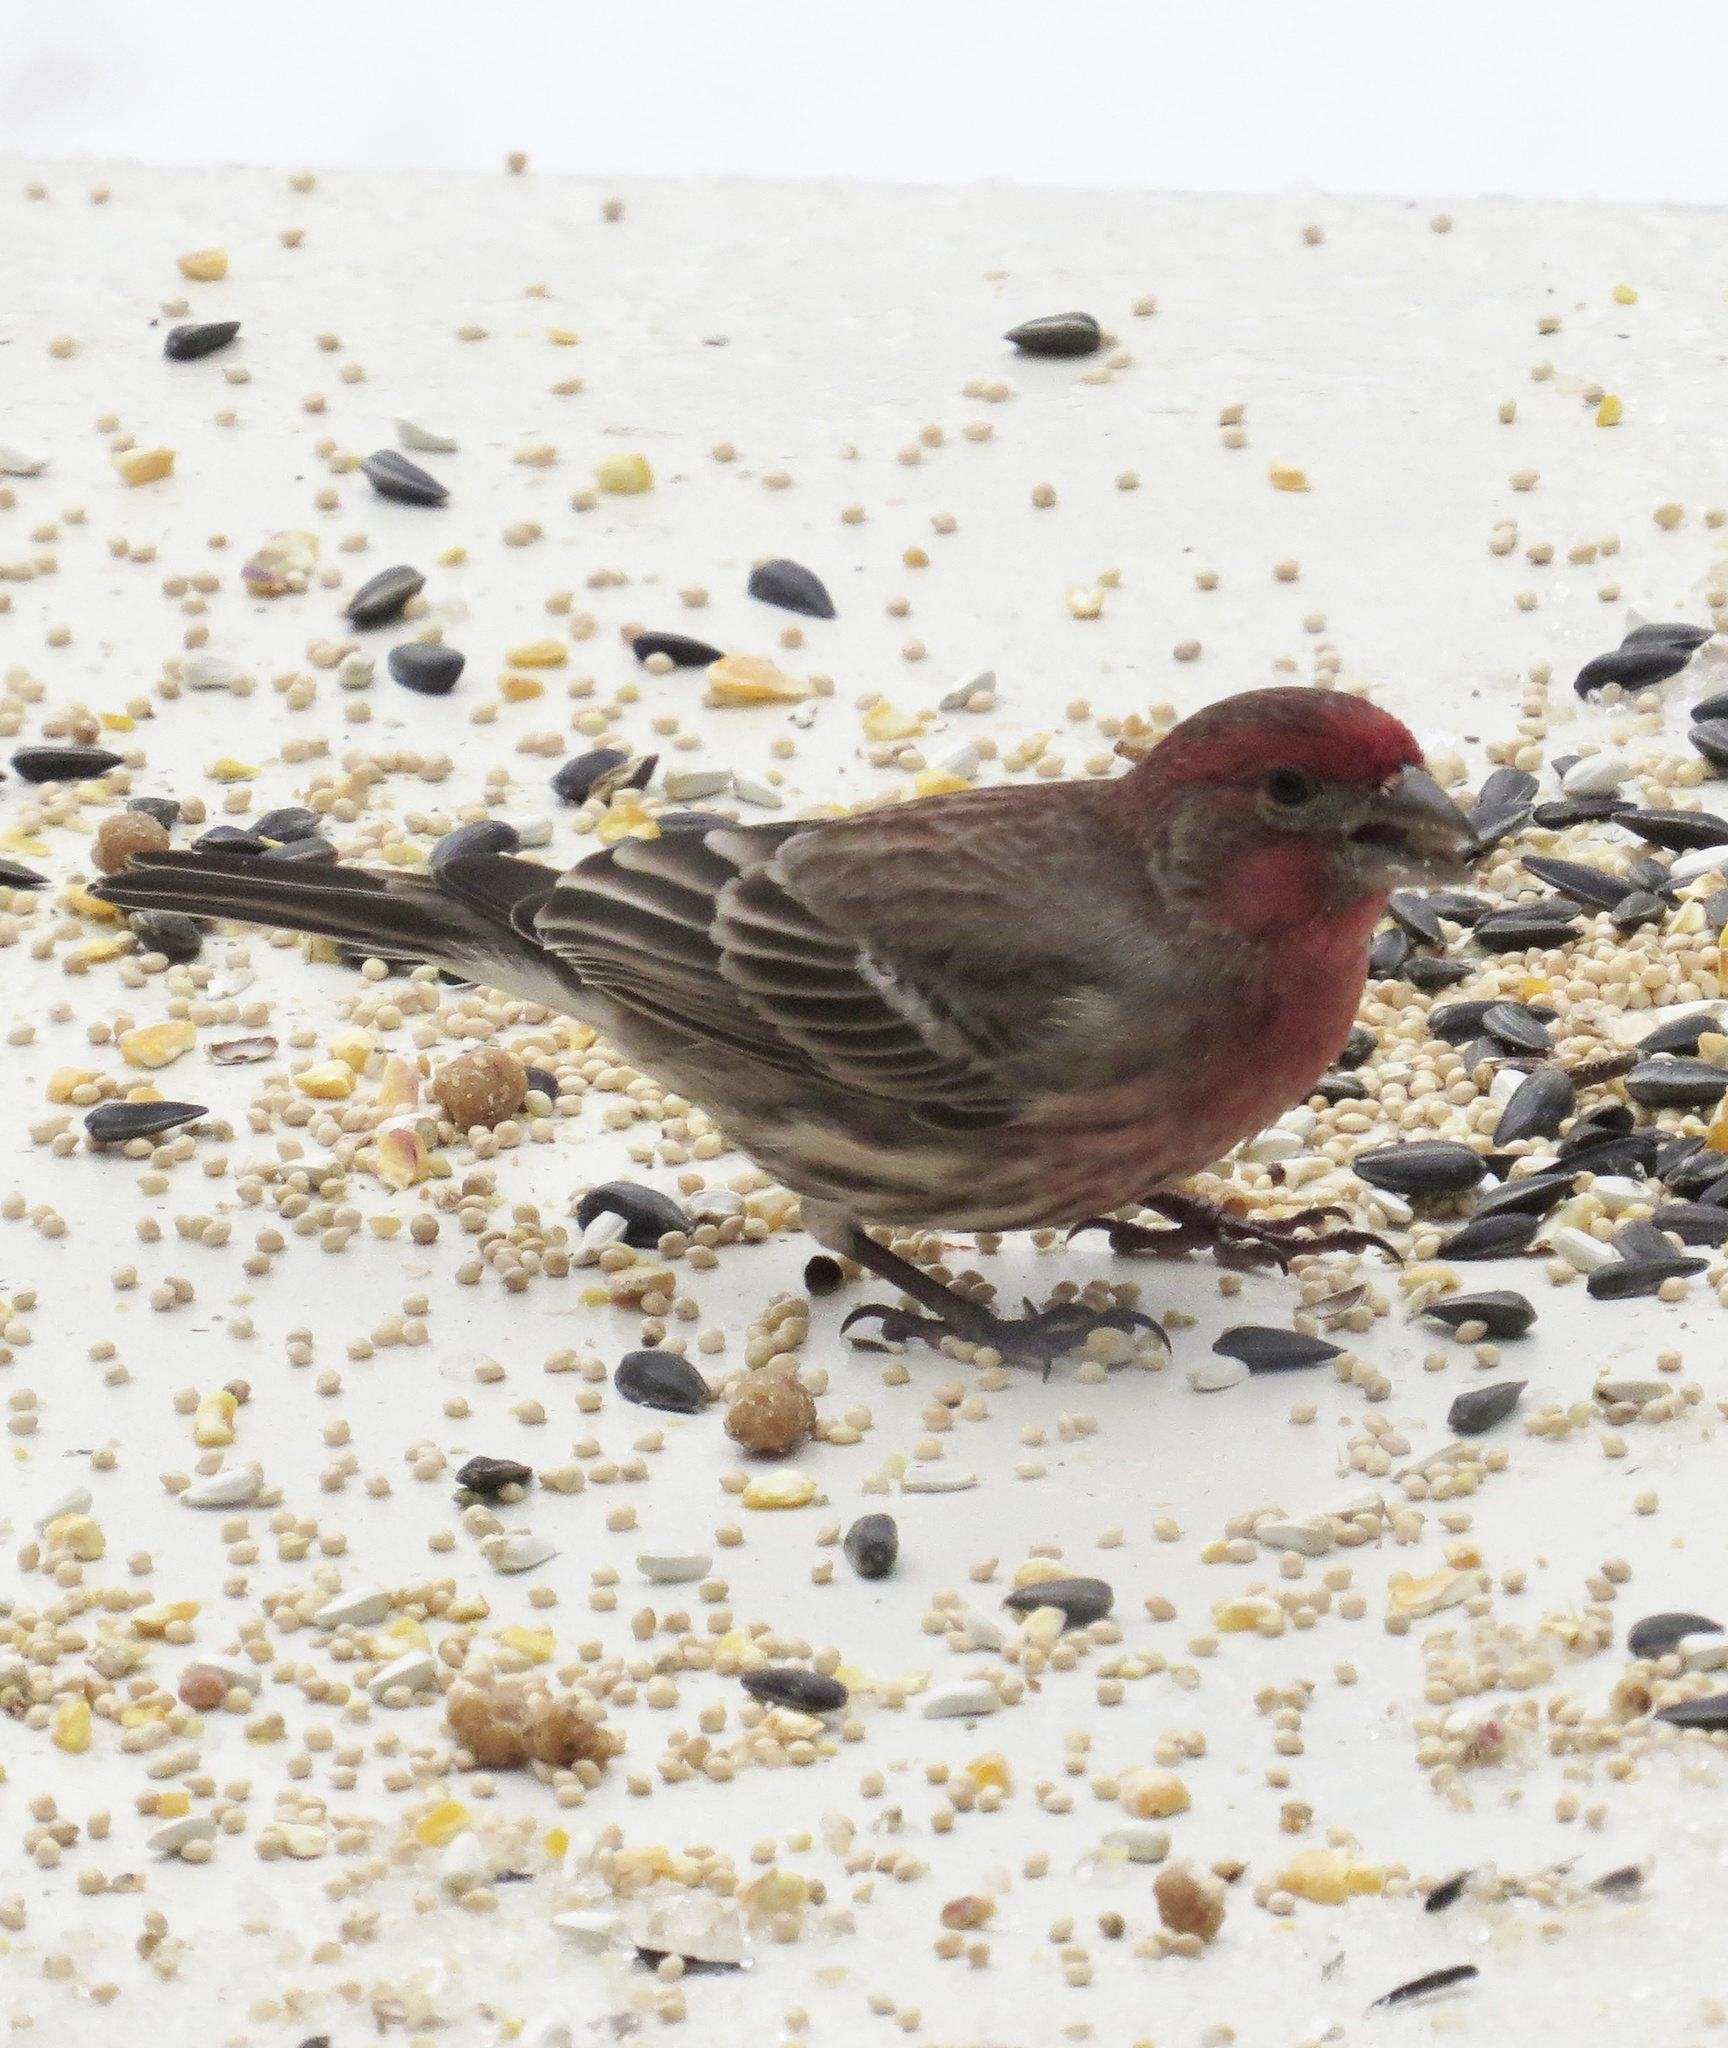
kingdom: Animalia
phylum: Chordata
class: Aves
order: Passeriformes
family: Fringillidae
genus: Haemorhous
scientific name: Haemorhous mexicanus
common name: House finch
